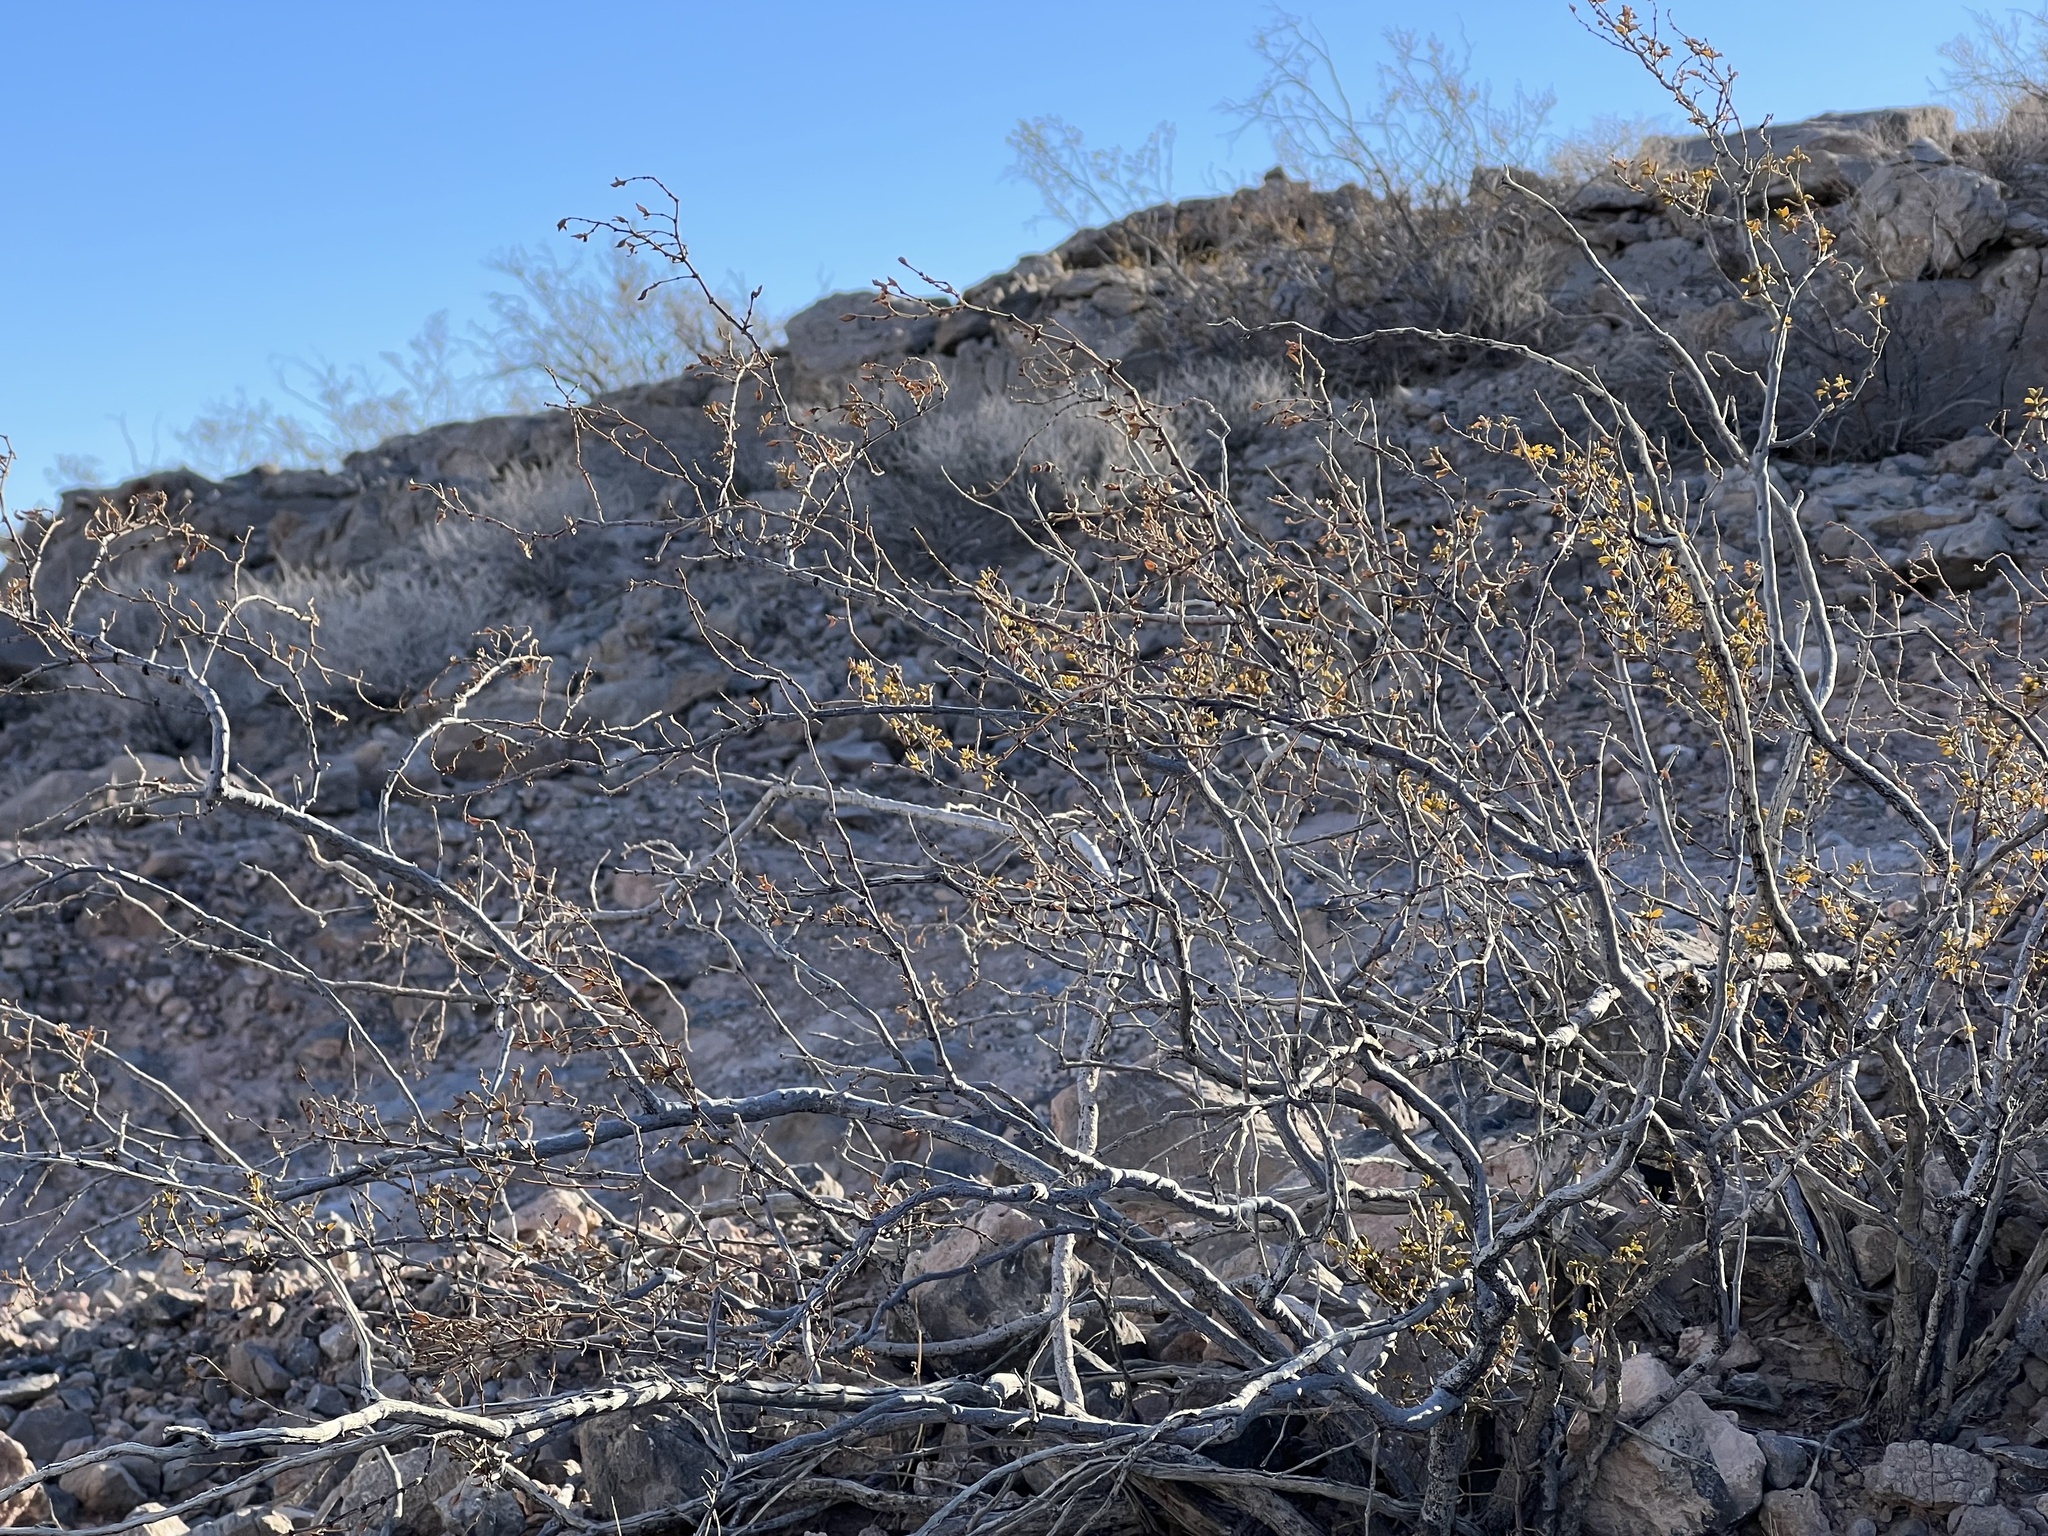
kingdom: Plantae
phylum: Tracheophyta
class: Magnoliopsida
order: Zygophyllales
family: Zygophyllaceae
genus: Larrea
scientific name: Larrea tridentata
